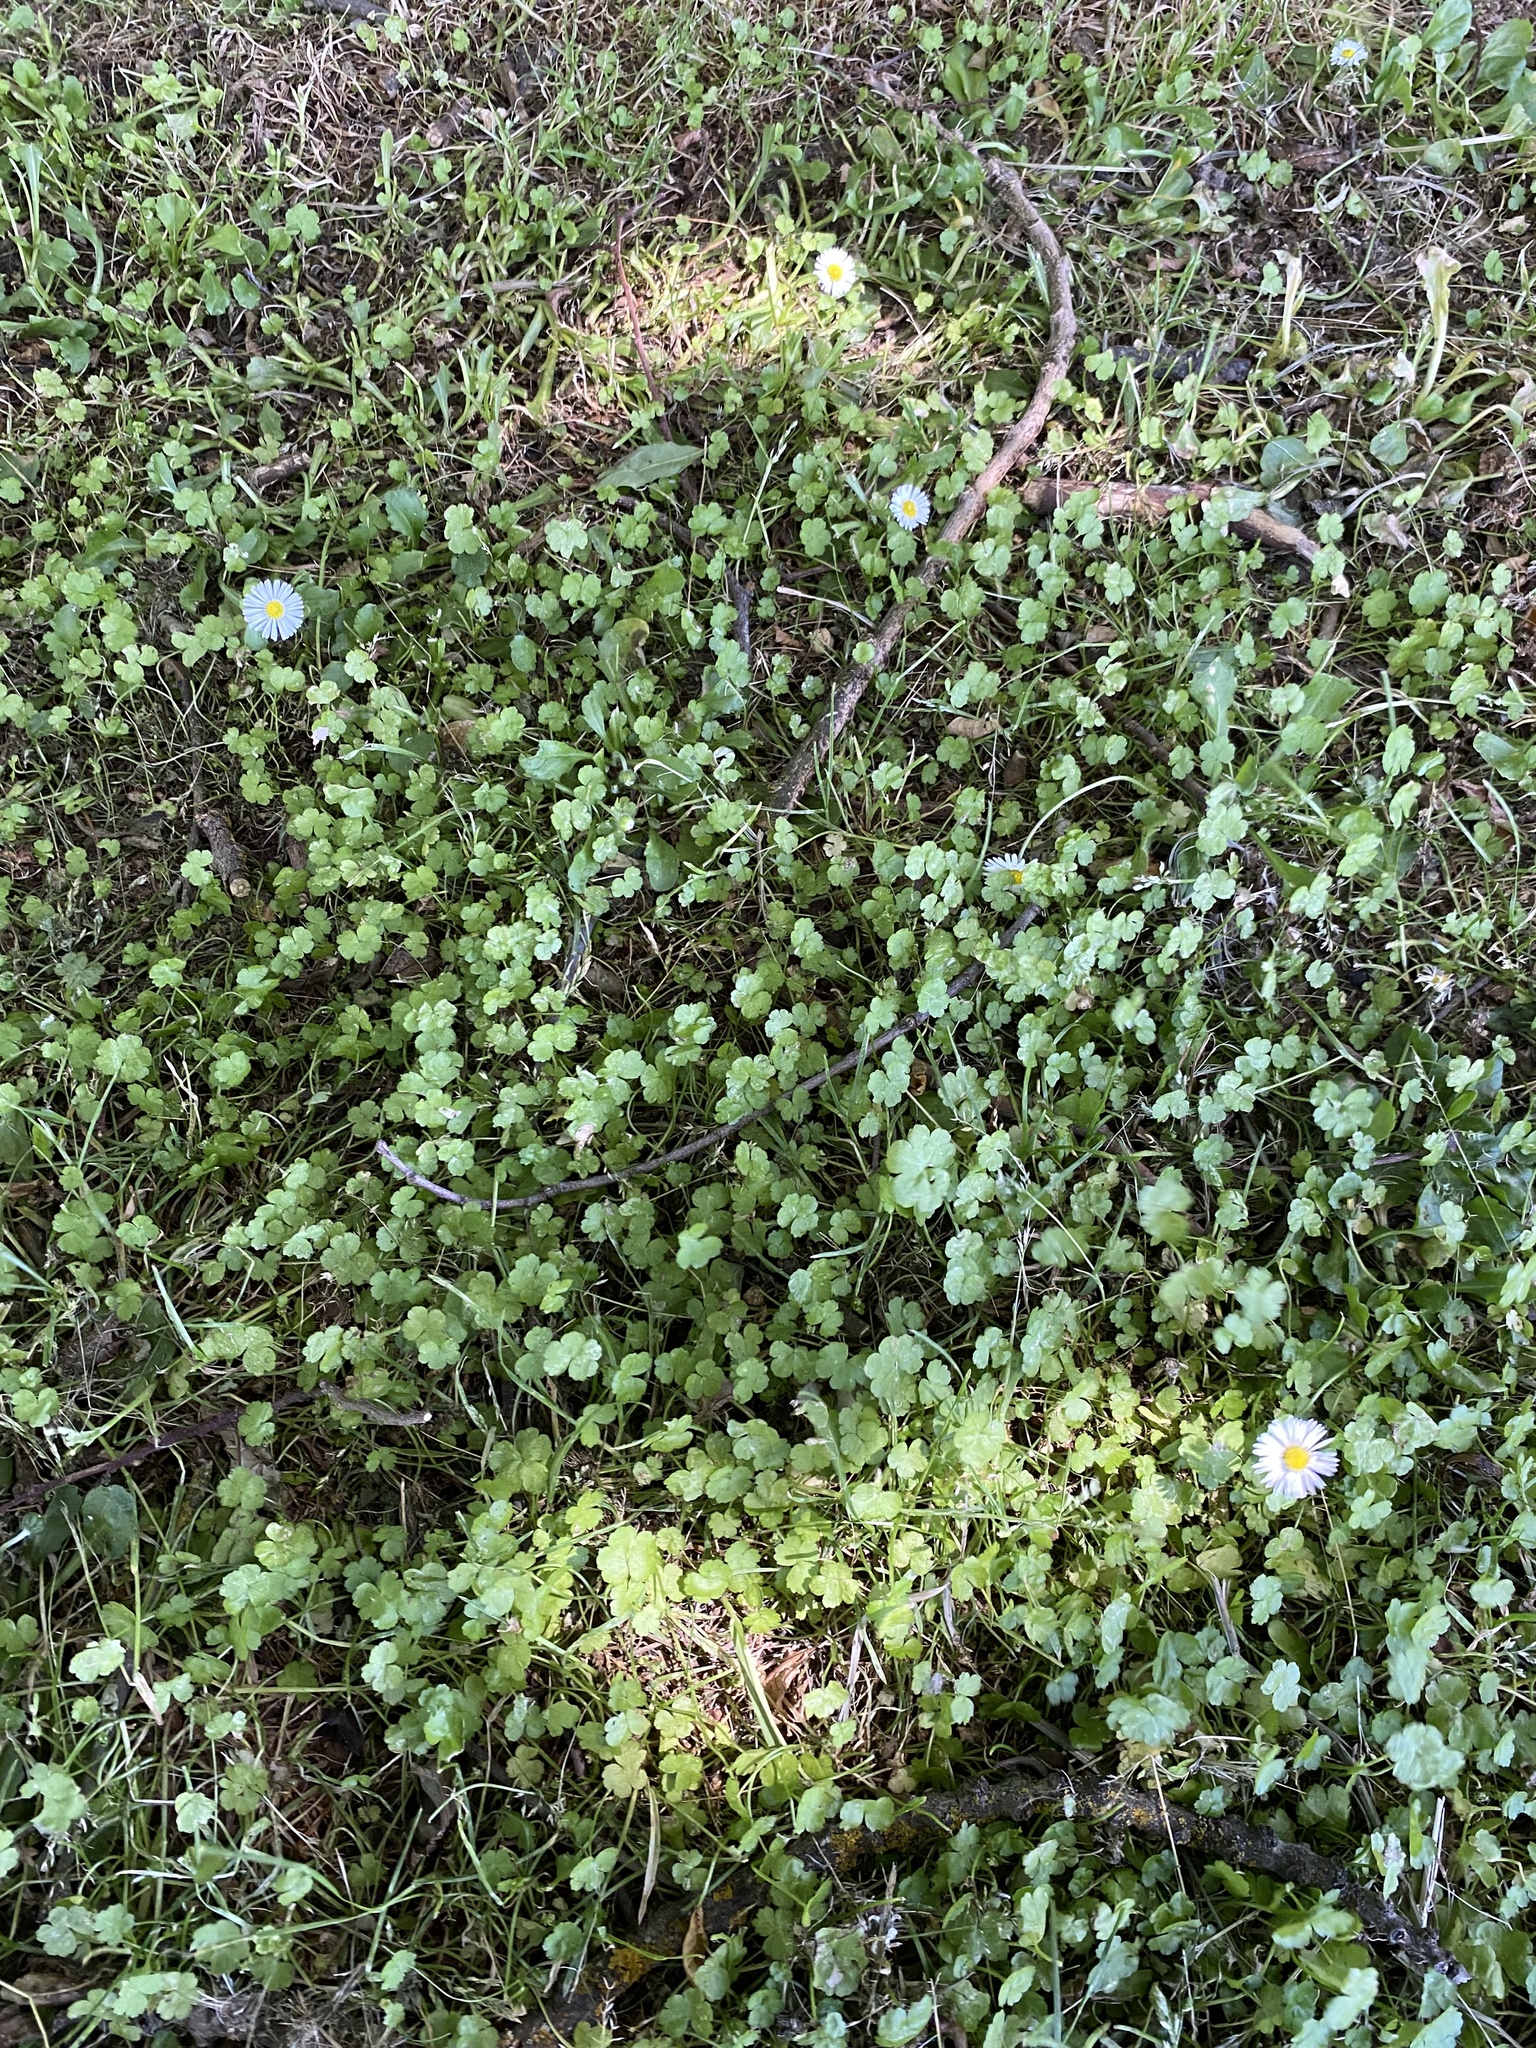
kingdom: Plantae
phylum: Tracheophyta
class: Magnoliopsida
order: Apiales
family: Araliaceae
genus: Hydrocotyle
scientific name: Hydrocotyle heteromeria
